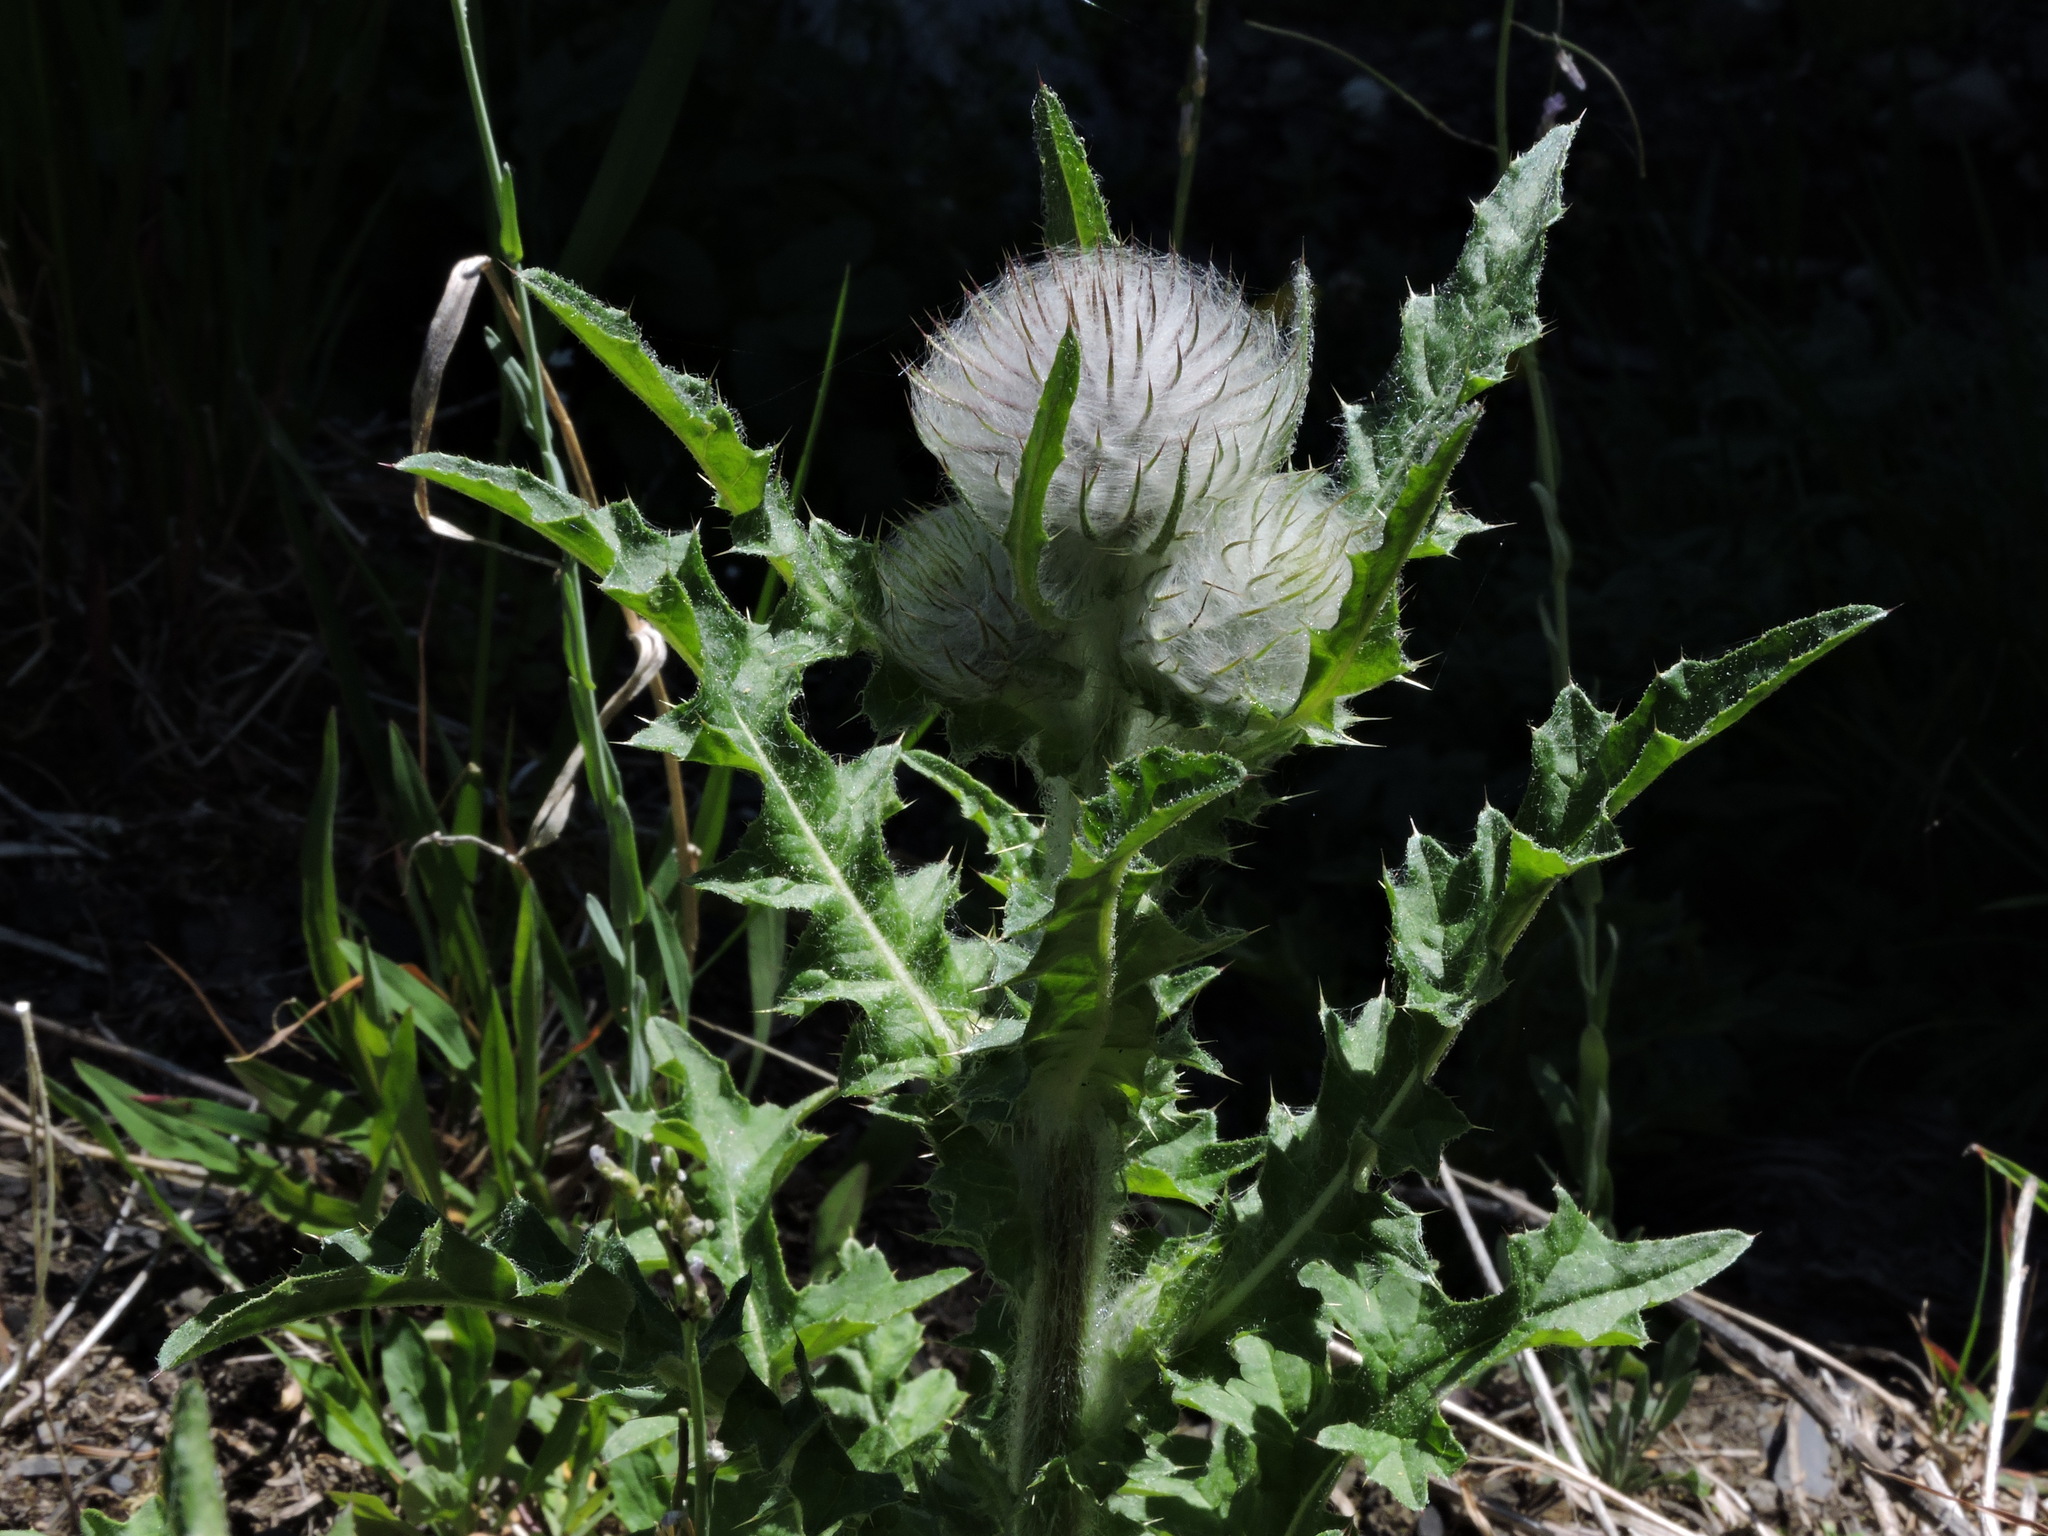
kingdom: Plantae
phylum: Tracheophyta
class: Magnoliopsida
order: Asterales
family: Asteraceae
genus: Cirsium
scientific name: Cirsium edule
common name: Indian thistle
